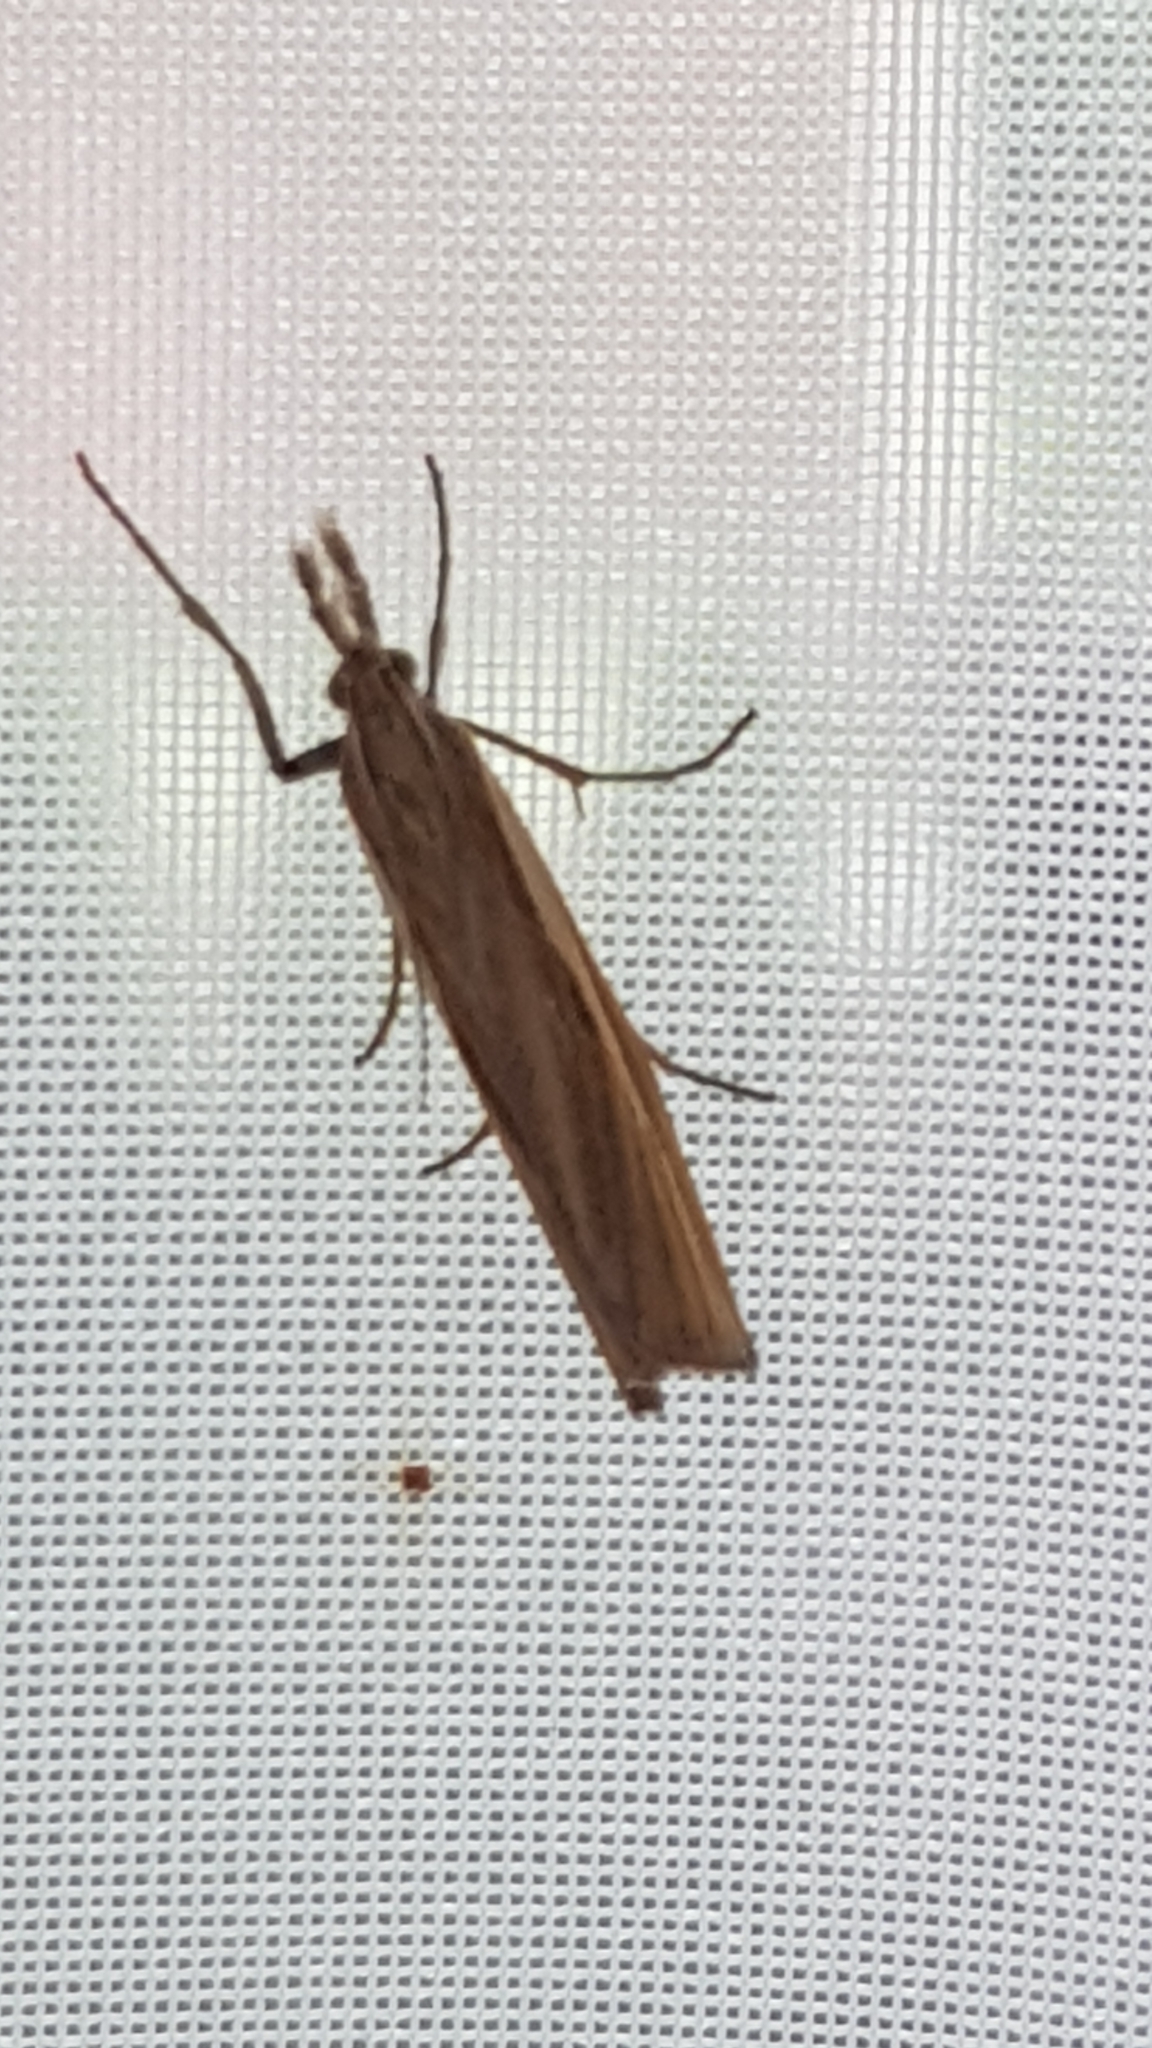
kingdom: Animalia
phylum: Arthropoda
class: Insecta
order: Lepidoptera
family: Crambidae
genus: Agriphila
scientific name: Agriphila tristellus
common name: Common grass-veneer
